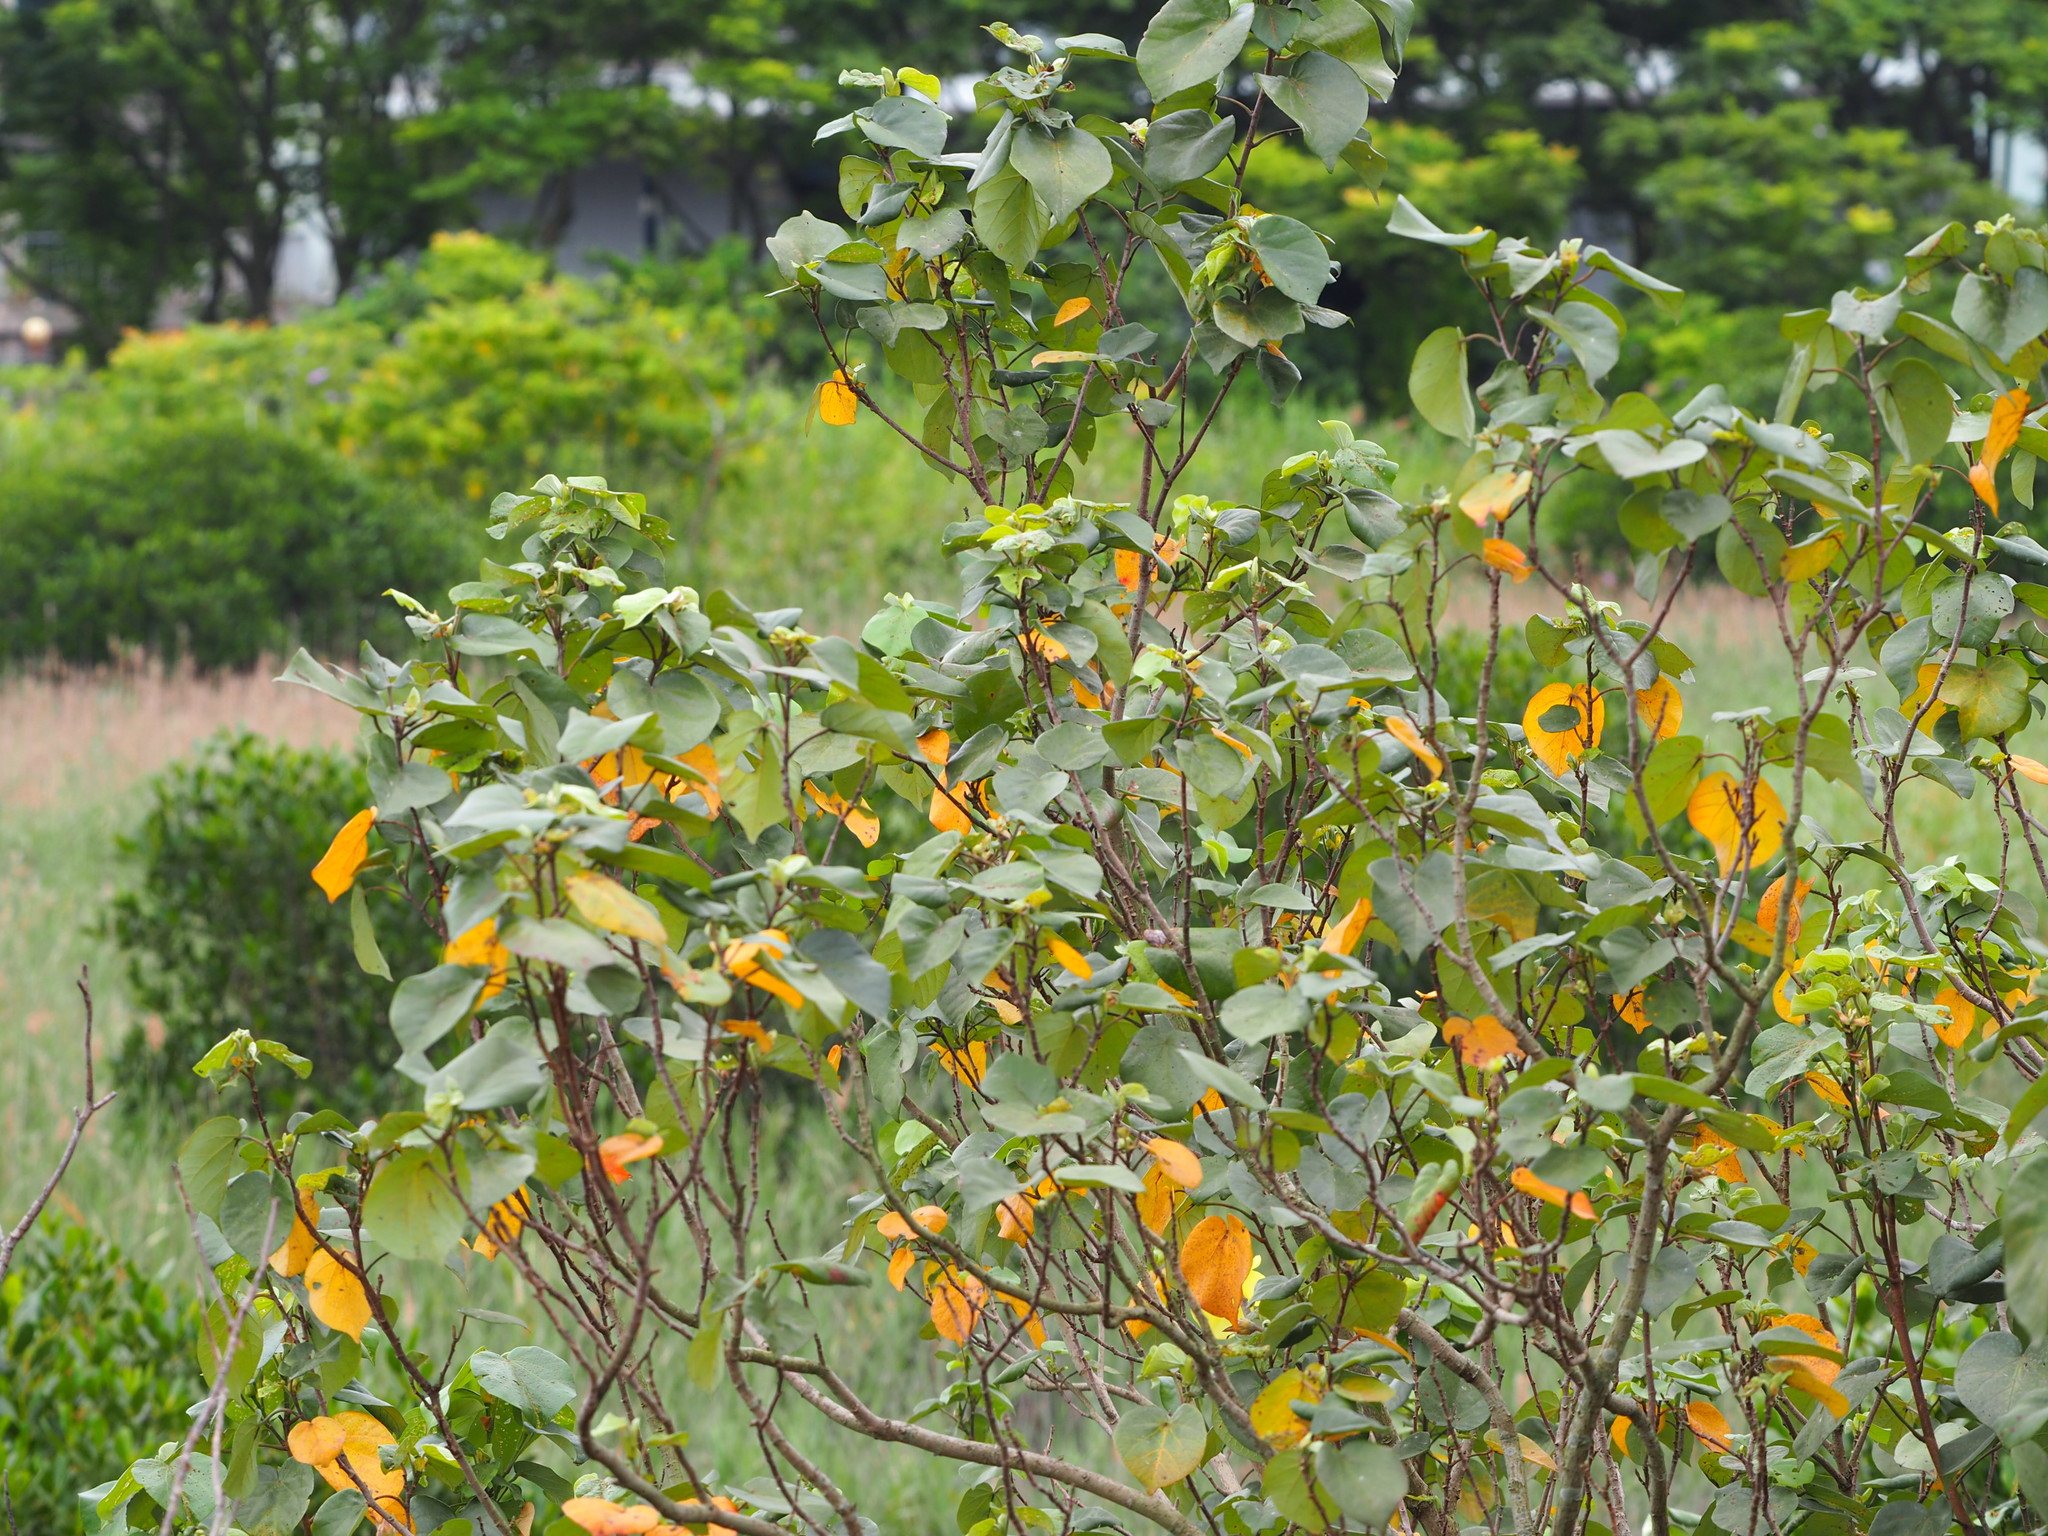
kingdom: Plantae
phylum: Tracheophyta
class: Magnoliopsida
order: Malvales
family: Malvaceae
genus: Talipariti
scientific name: Talipariti tiliaceum
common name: Sea hibiscus
